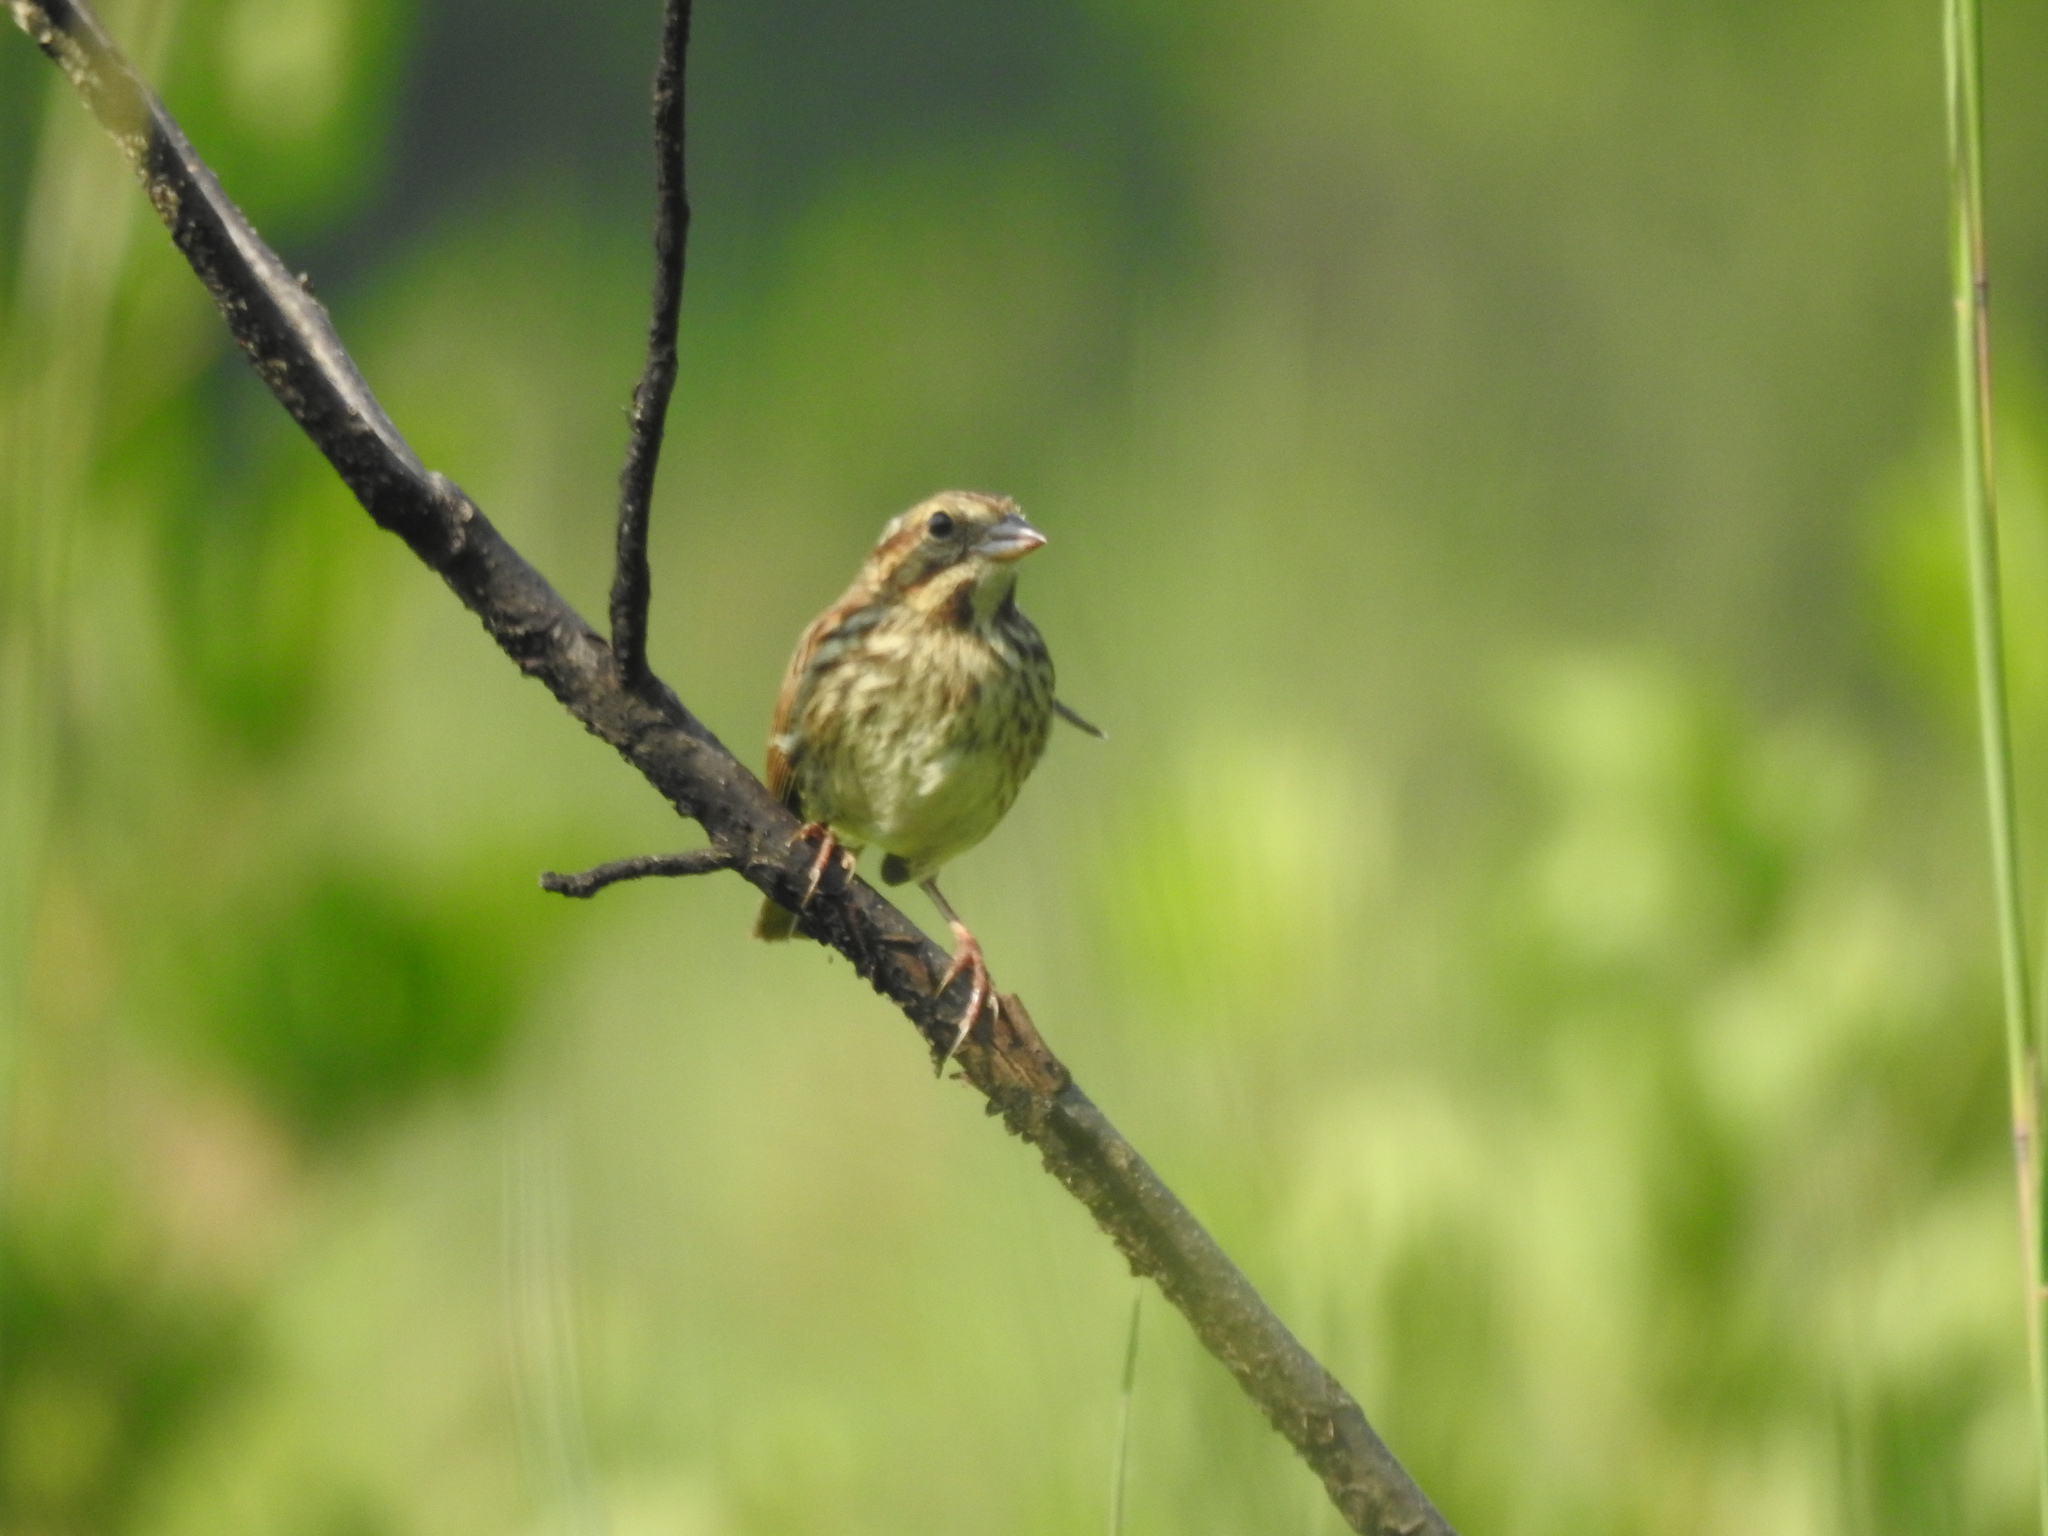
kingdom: Animalia
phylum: Chordata
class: Aves
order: Passeriformes
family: Passerellidae
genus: Melospiza
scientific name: Melospiza melodia
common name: Song sparrow
